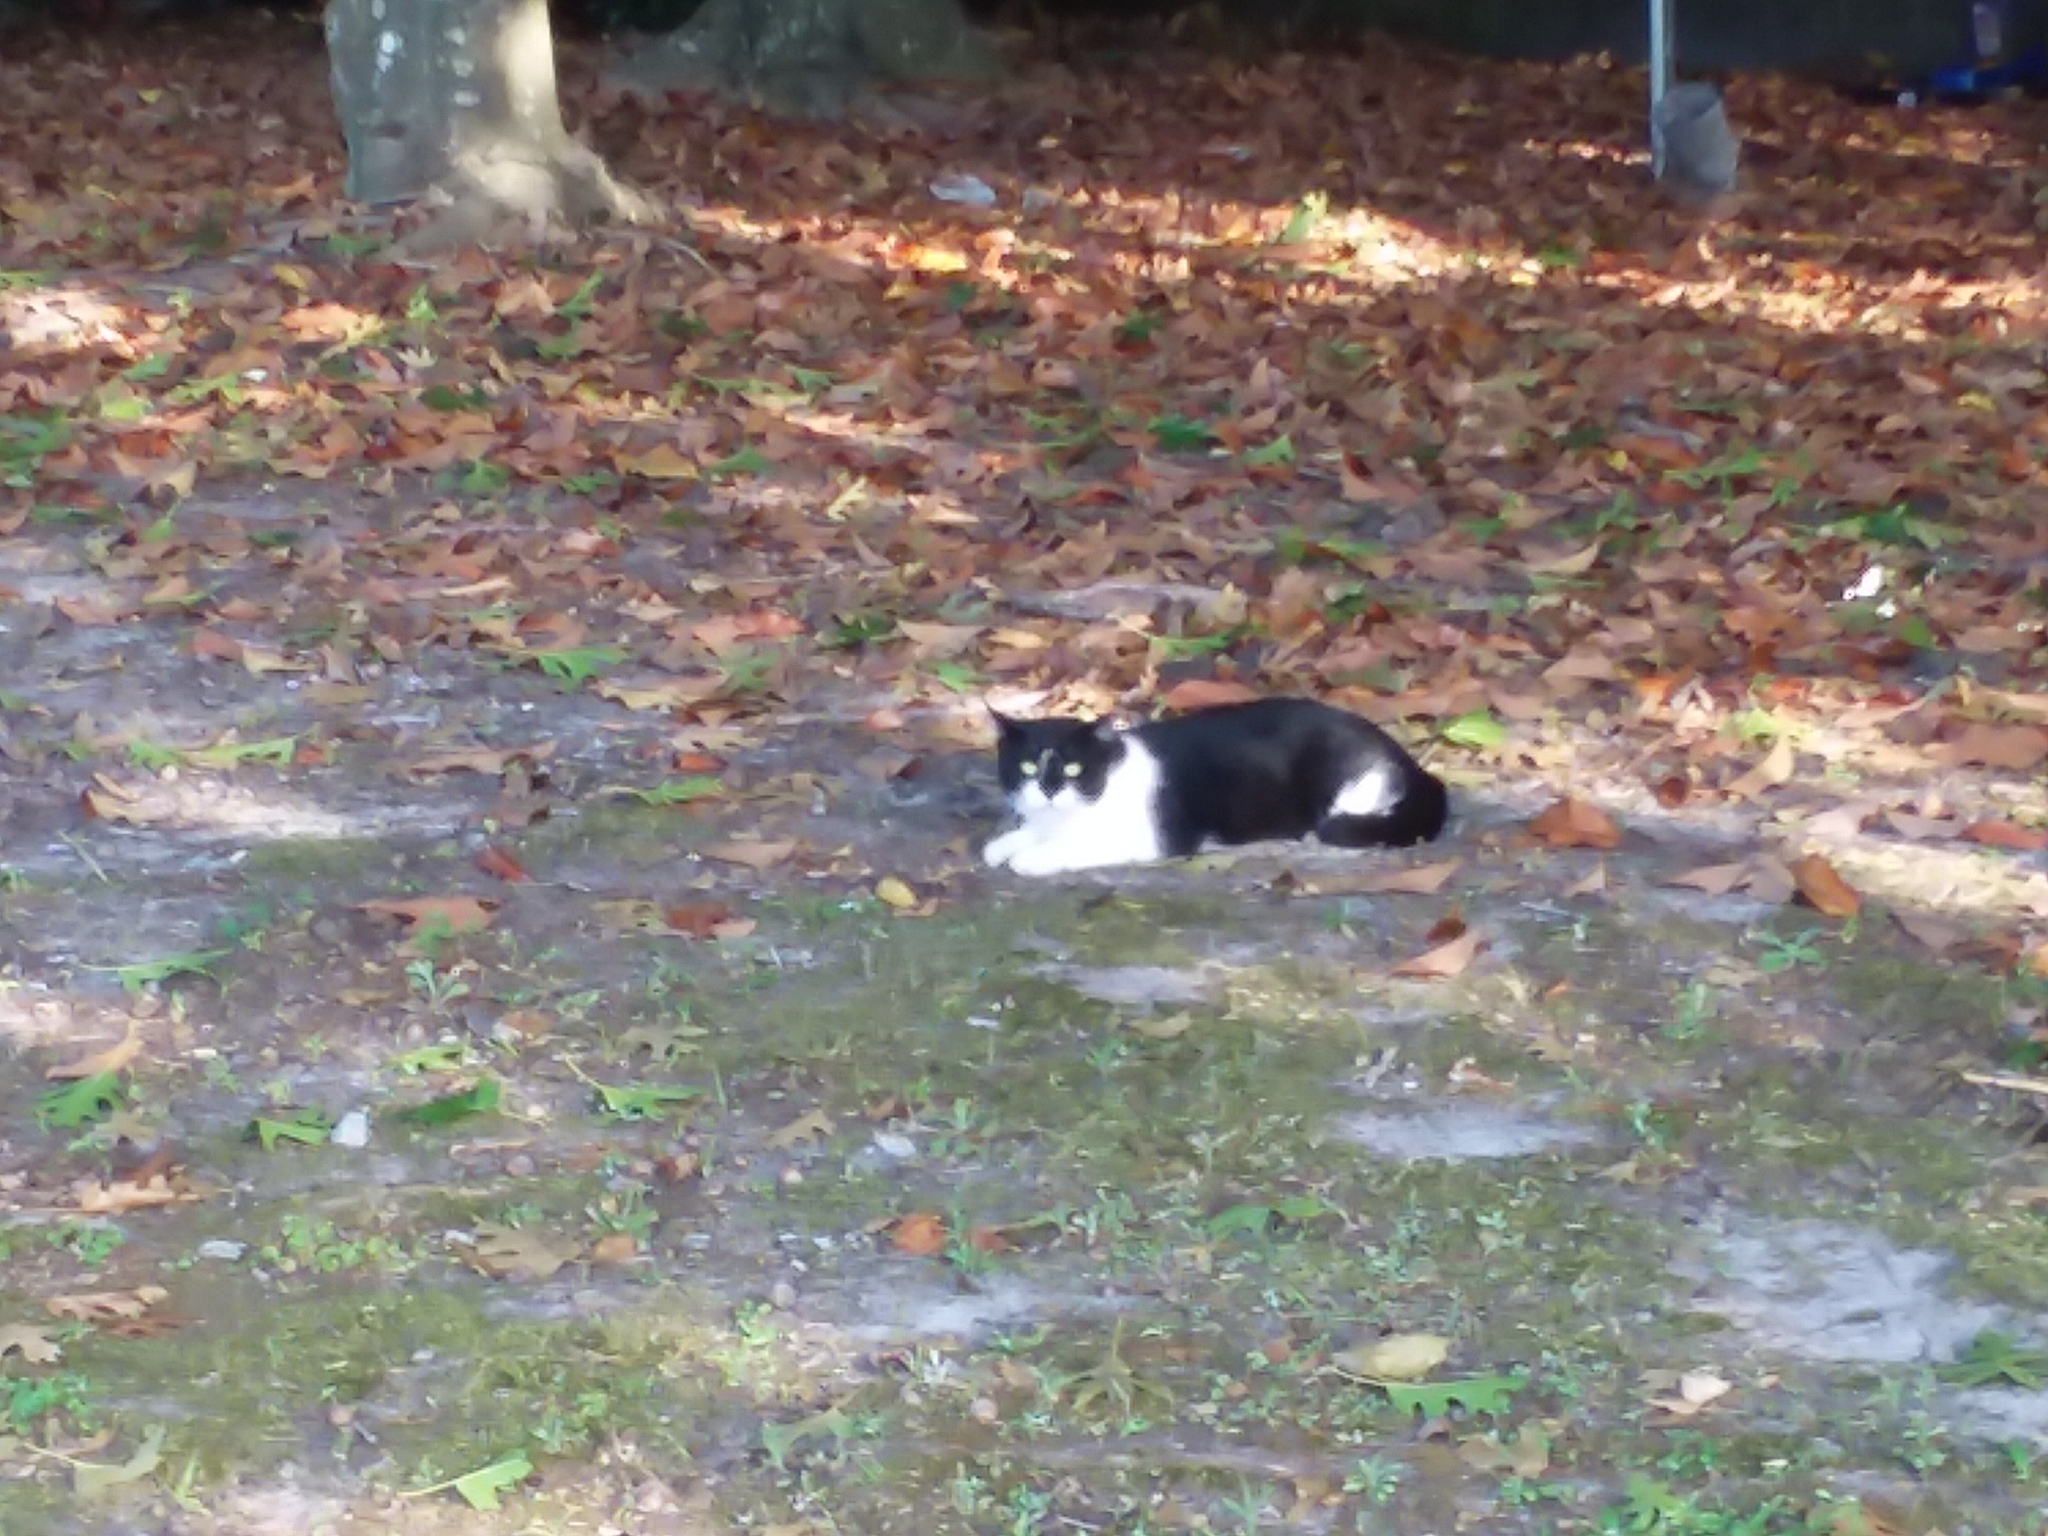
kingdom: Animalia
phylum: Chordata
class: Mammalia
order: Carnivora
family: Felidae
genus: Felis
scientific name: Felis catus
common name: Domestic cat
